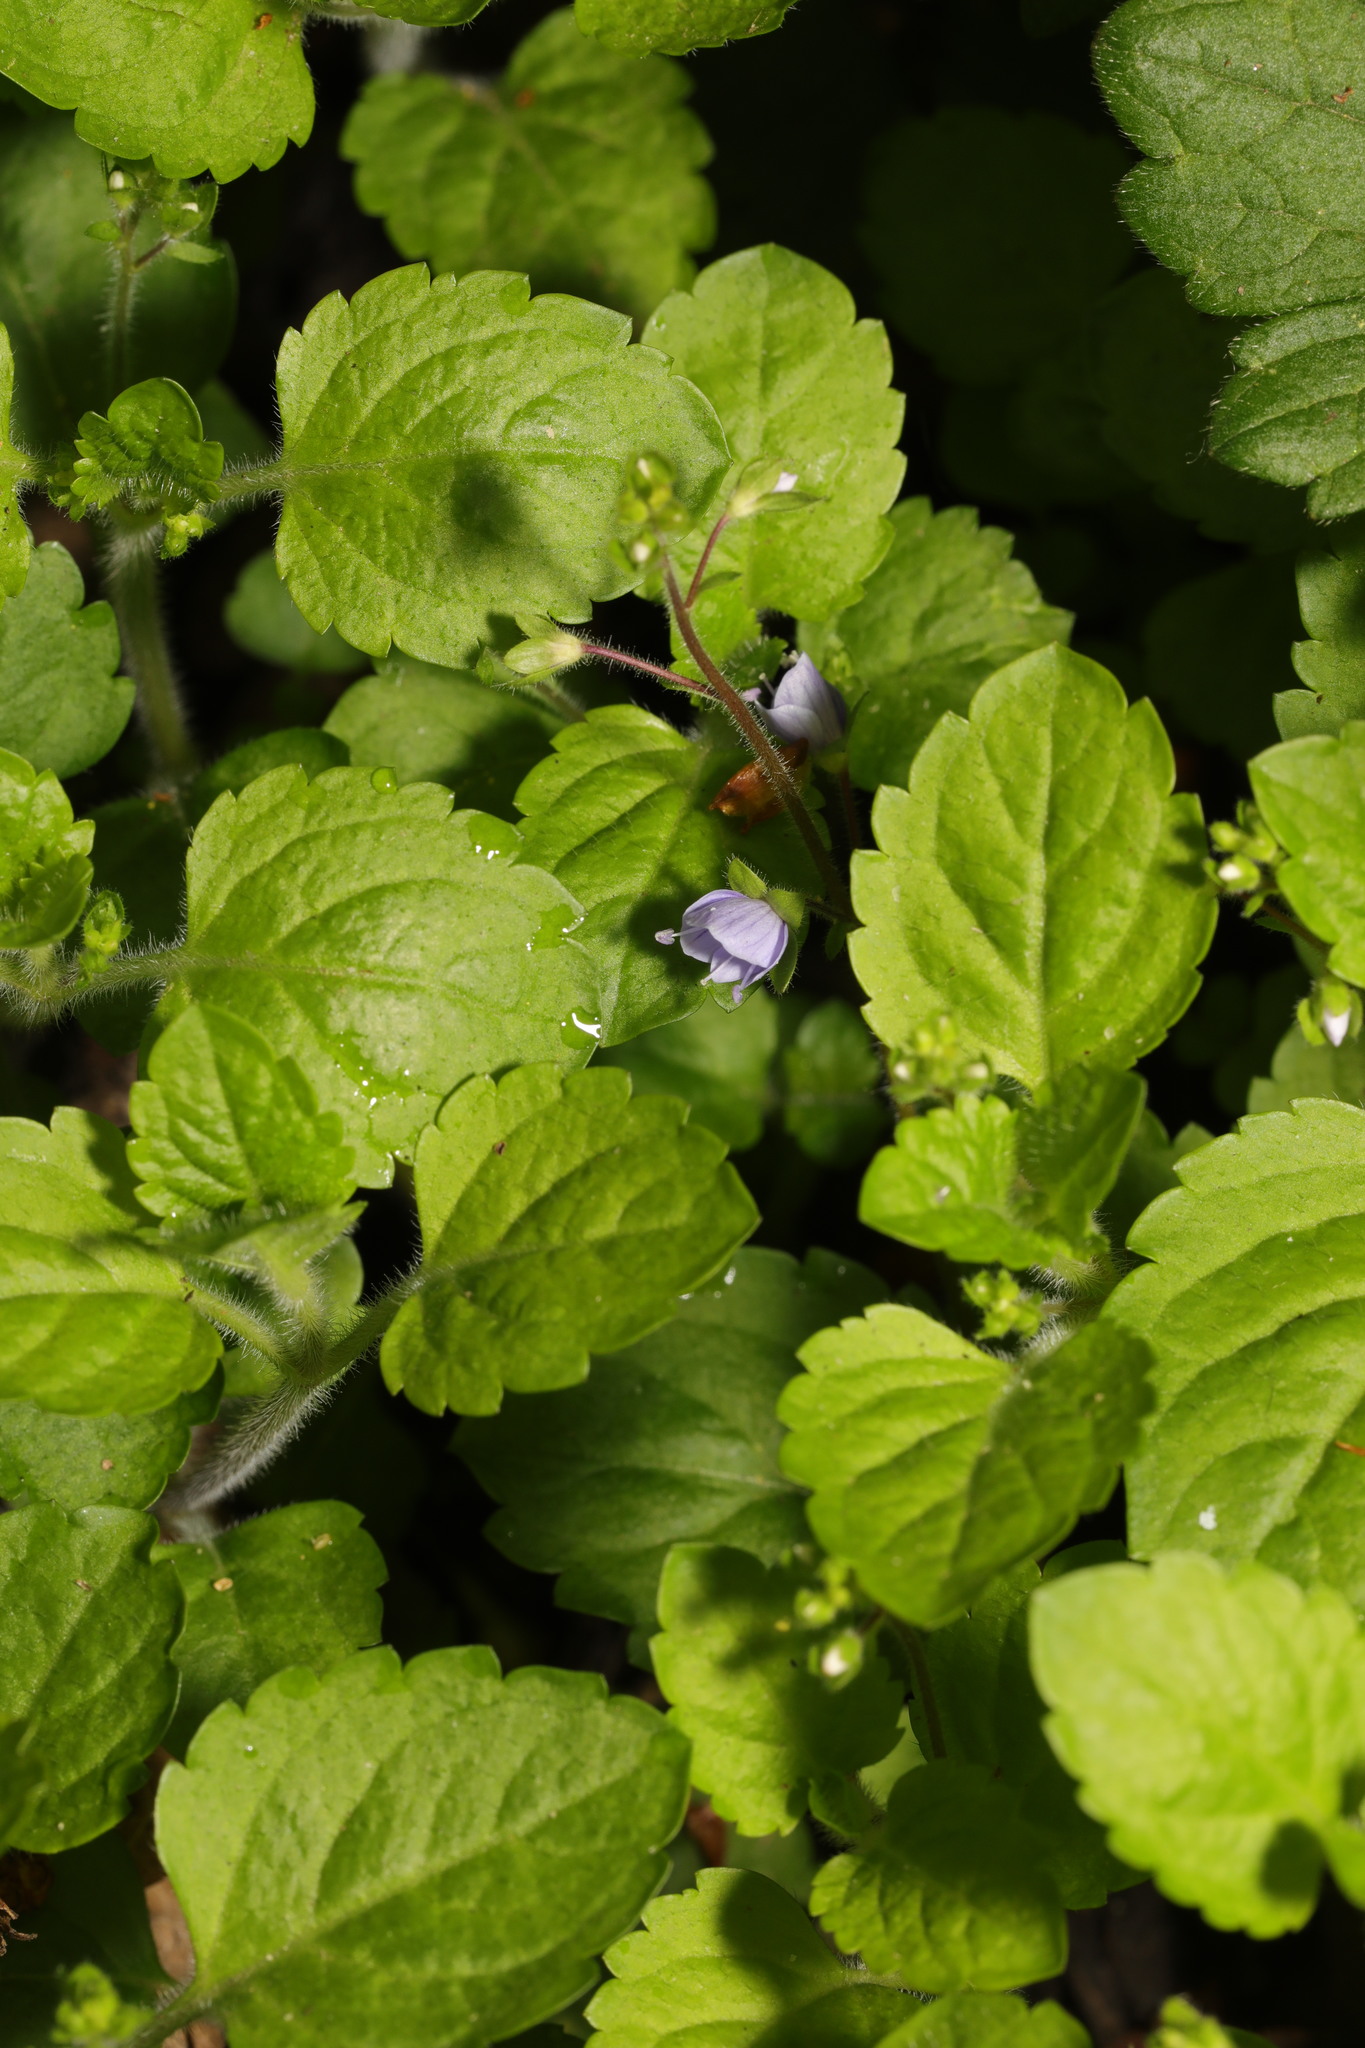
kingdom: Plantae
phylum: Tracheophyta
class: Magnoliopsida
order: Lamiales
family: Plantaginaceae
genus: Veronica
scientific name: Veronica montana
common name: Wood speedwell
